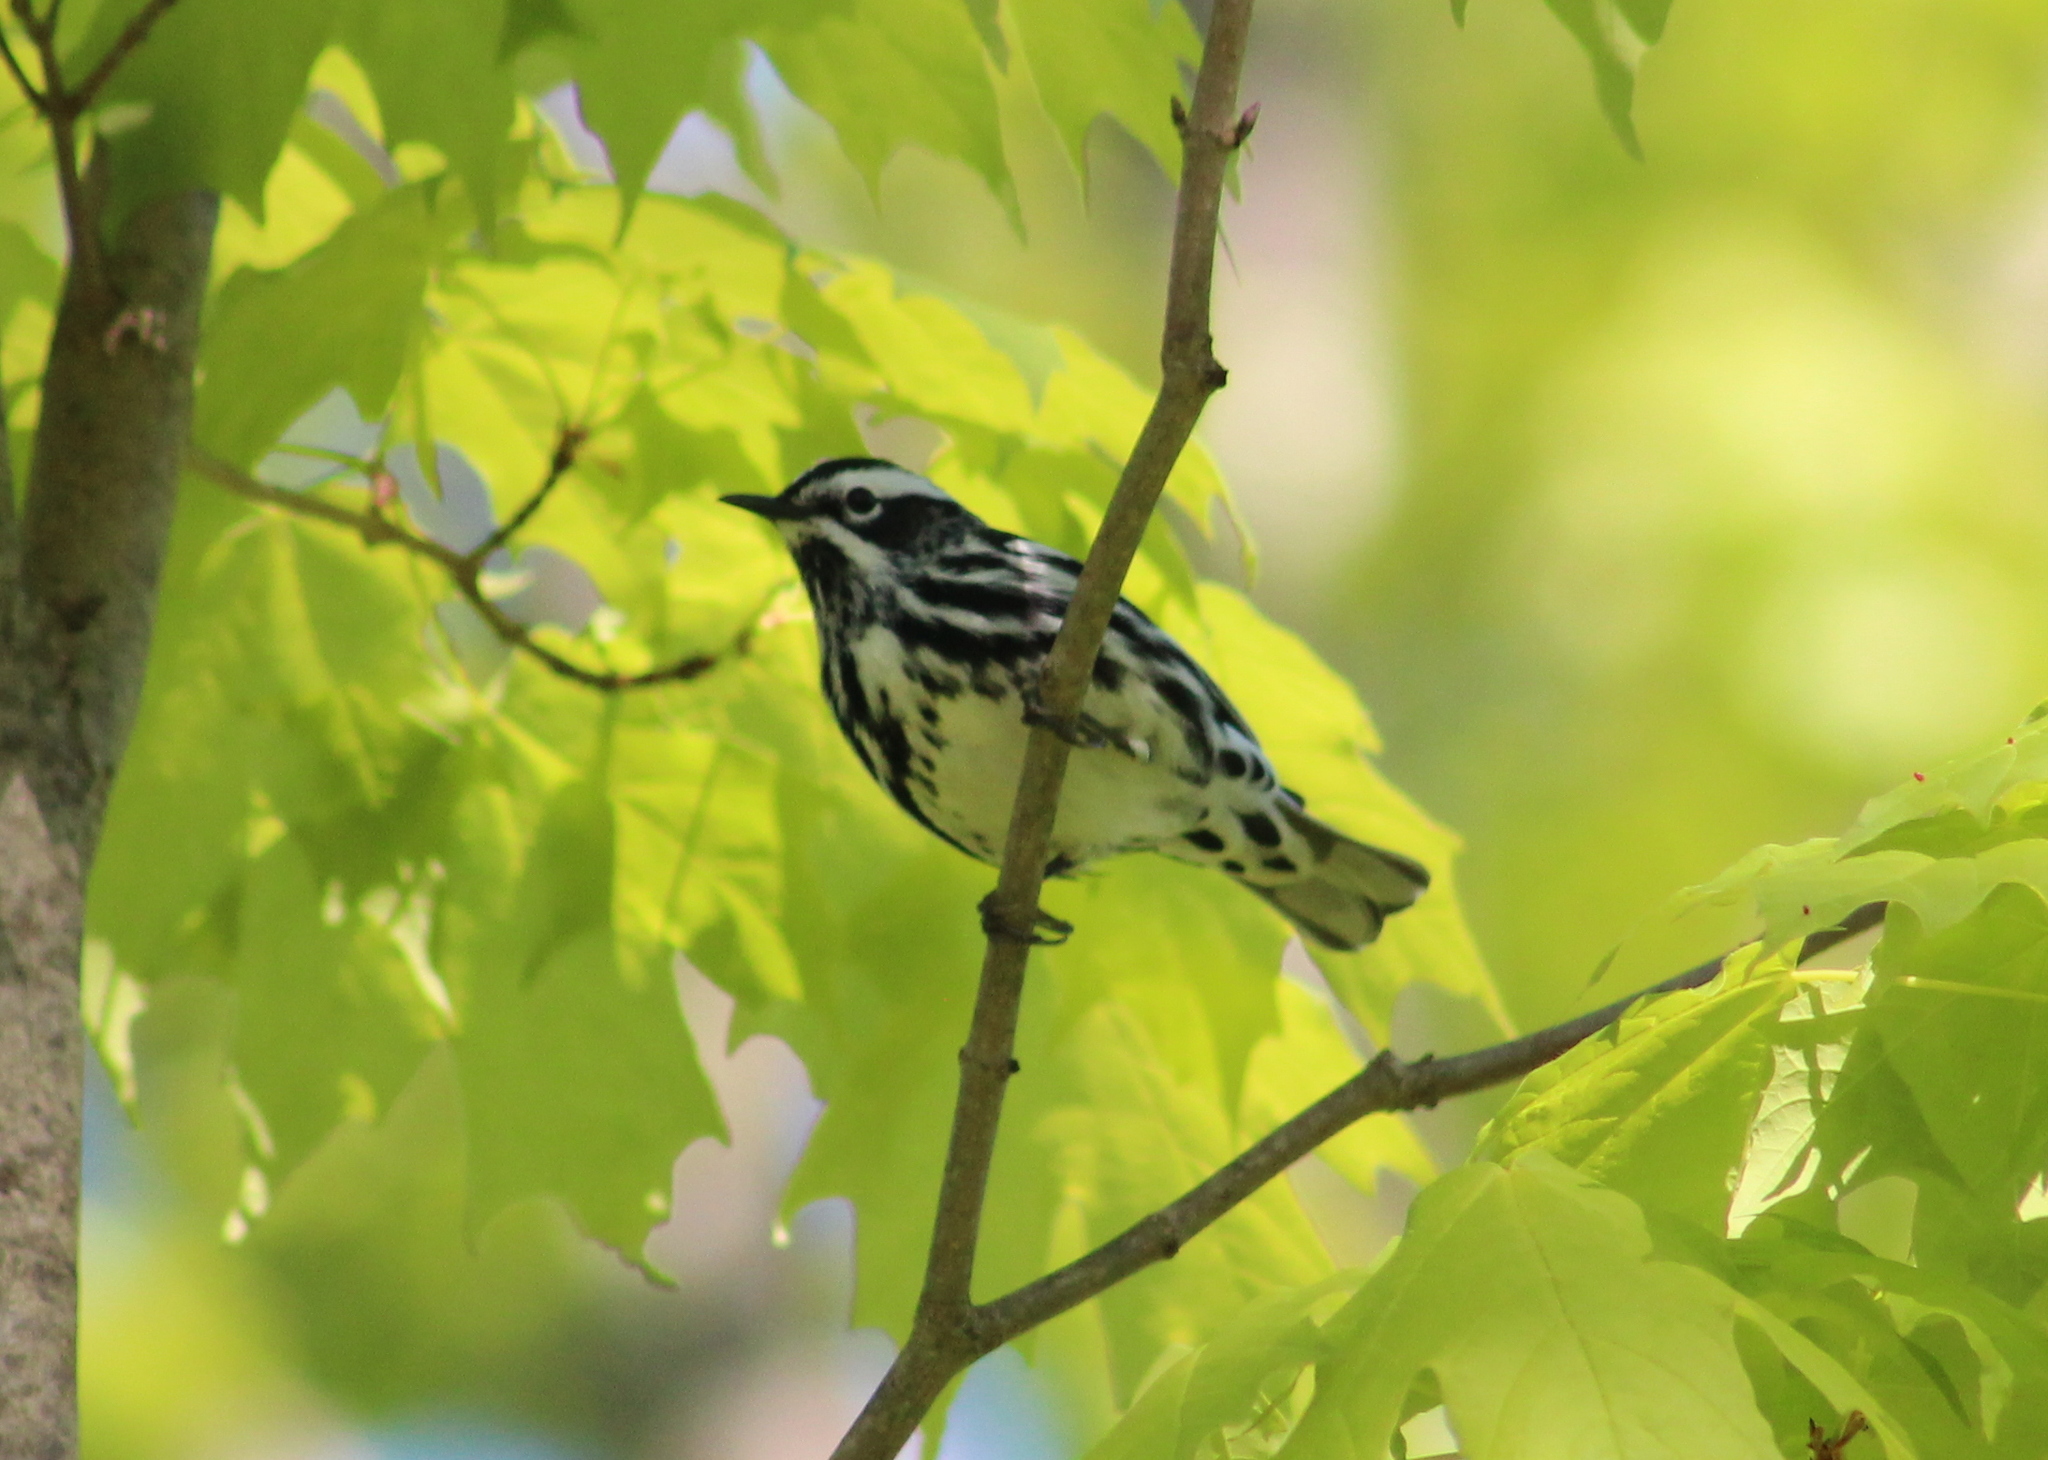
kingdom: Animalia
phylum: Chordata
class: Aves
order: Passeriformes
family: Parulidae
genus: Mniotilta
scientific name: Mniotilta varia
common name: Black-and-white warbler
